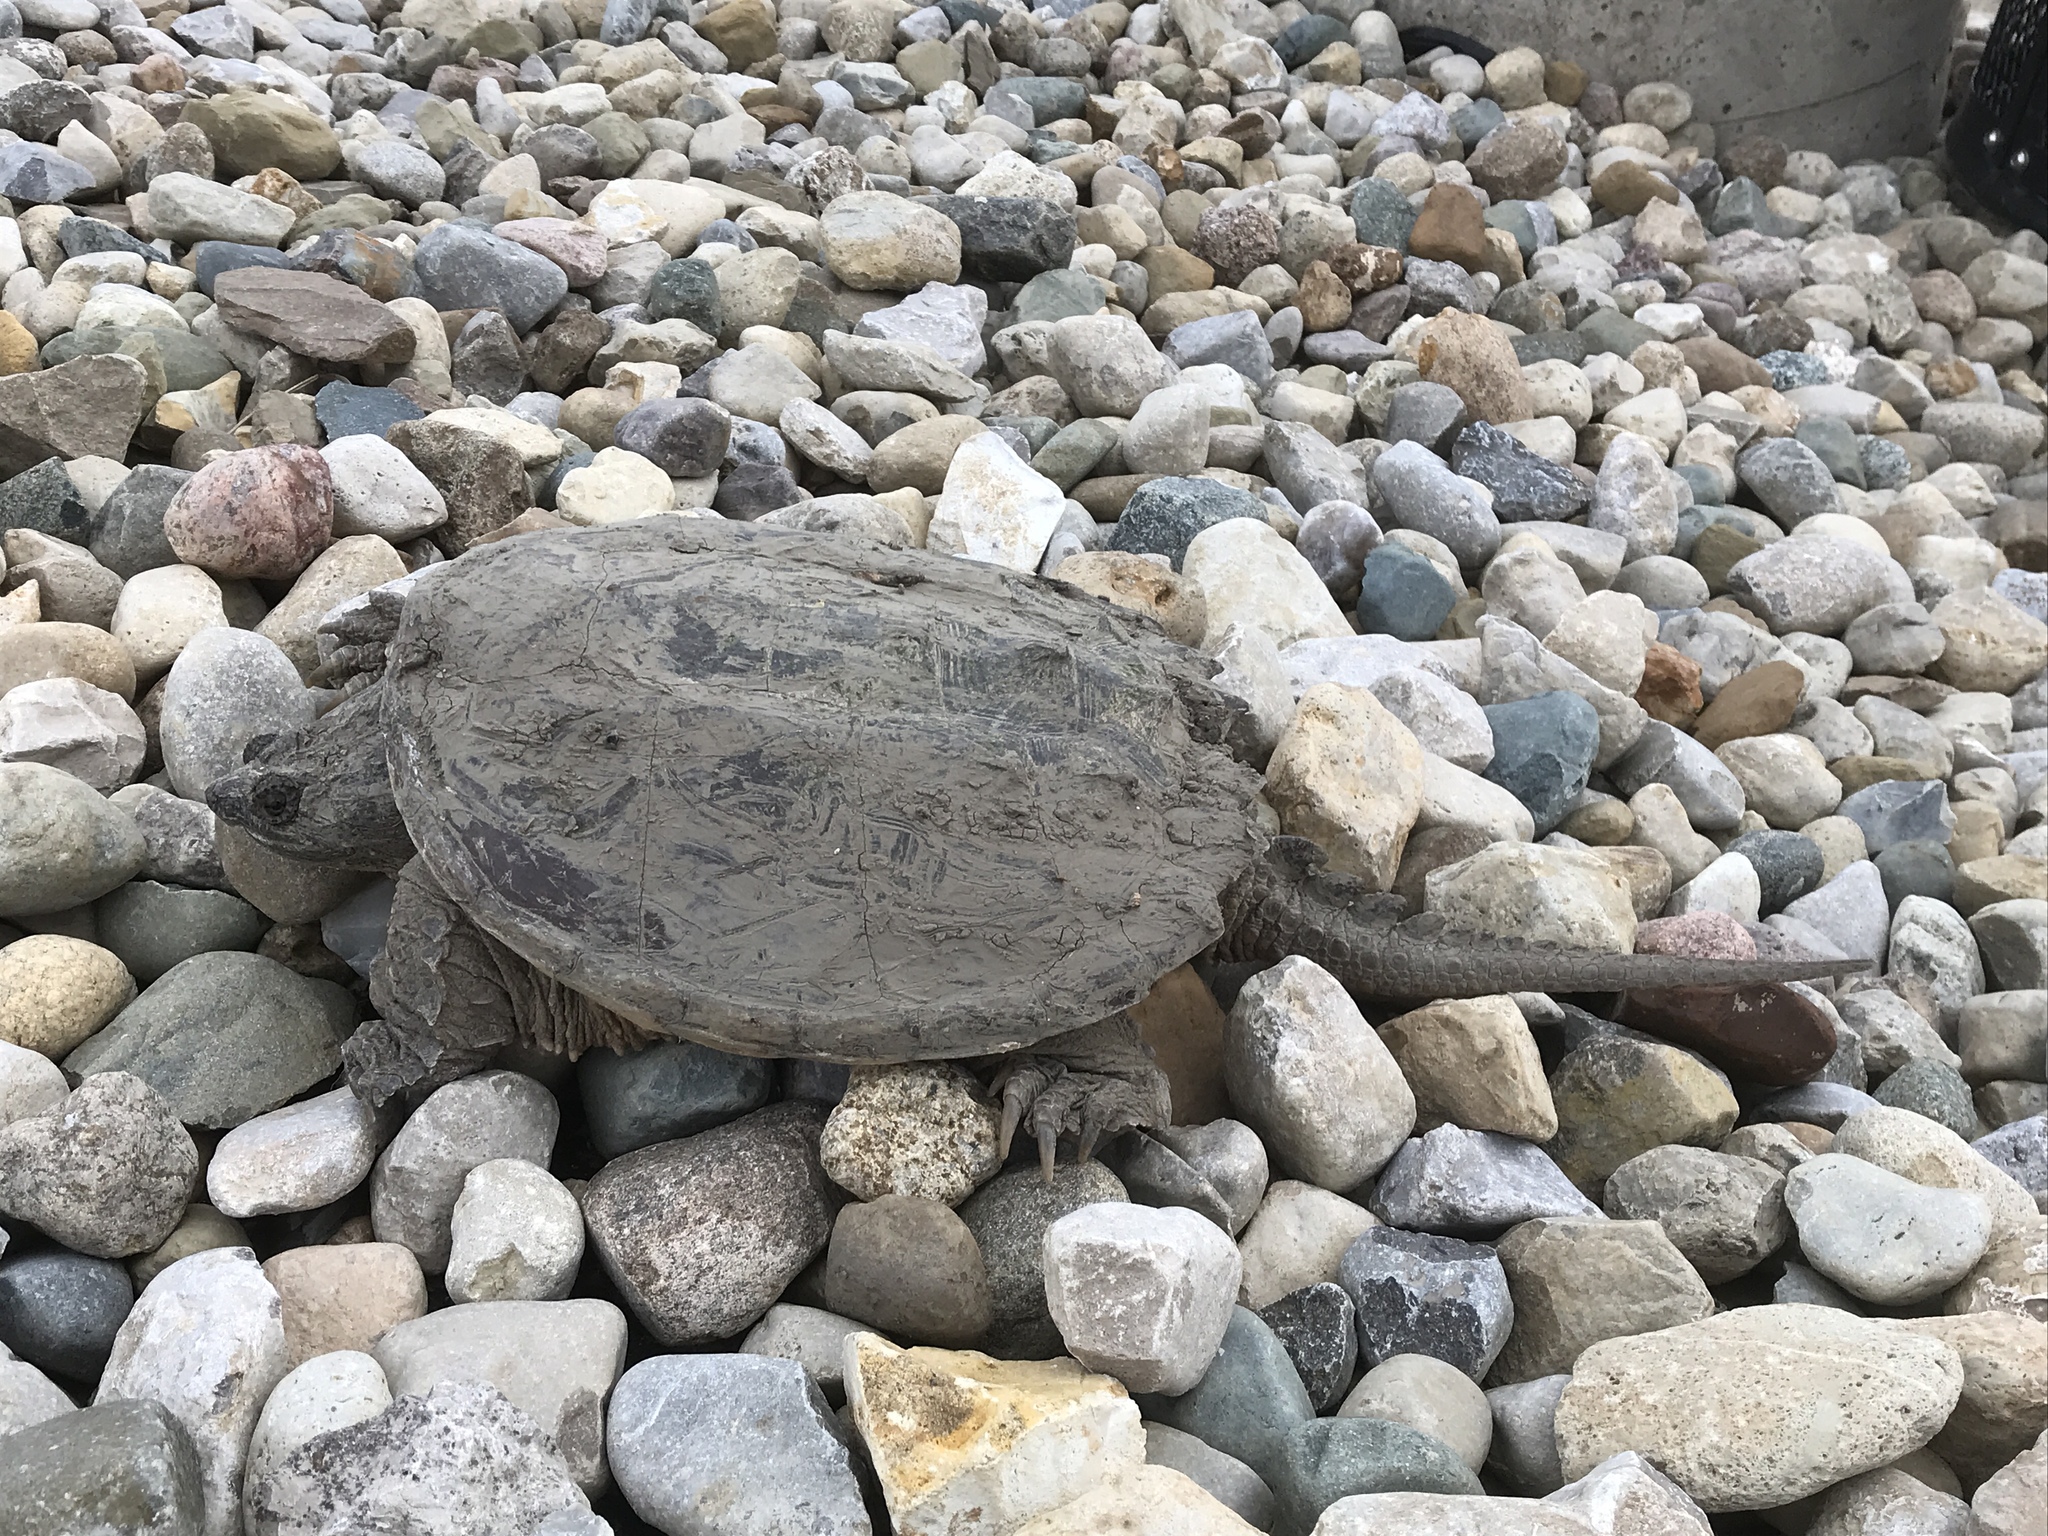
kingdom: Animalia
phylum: Chordata
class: Testudines
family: Chelydridae
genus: Chelydra
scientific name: Chelydra serpentina
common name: Common snapping turtle
